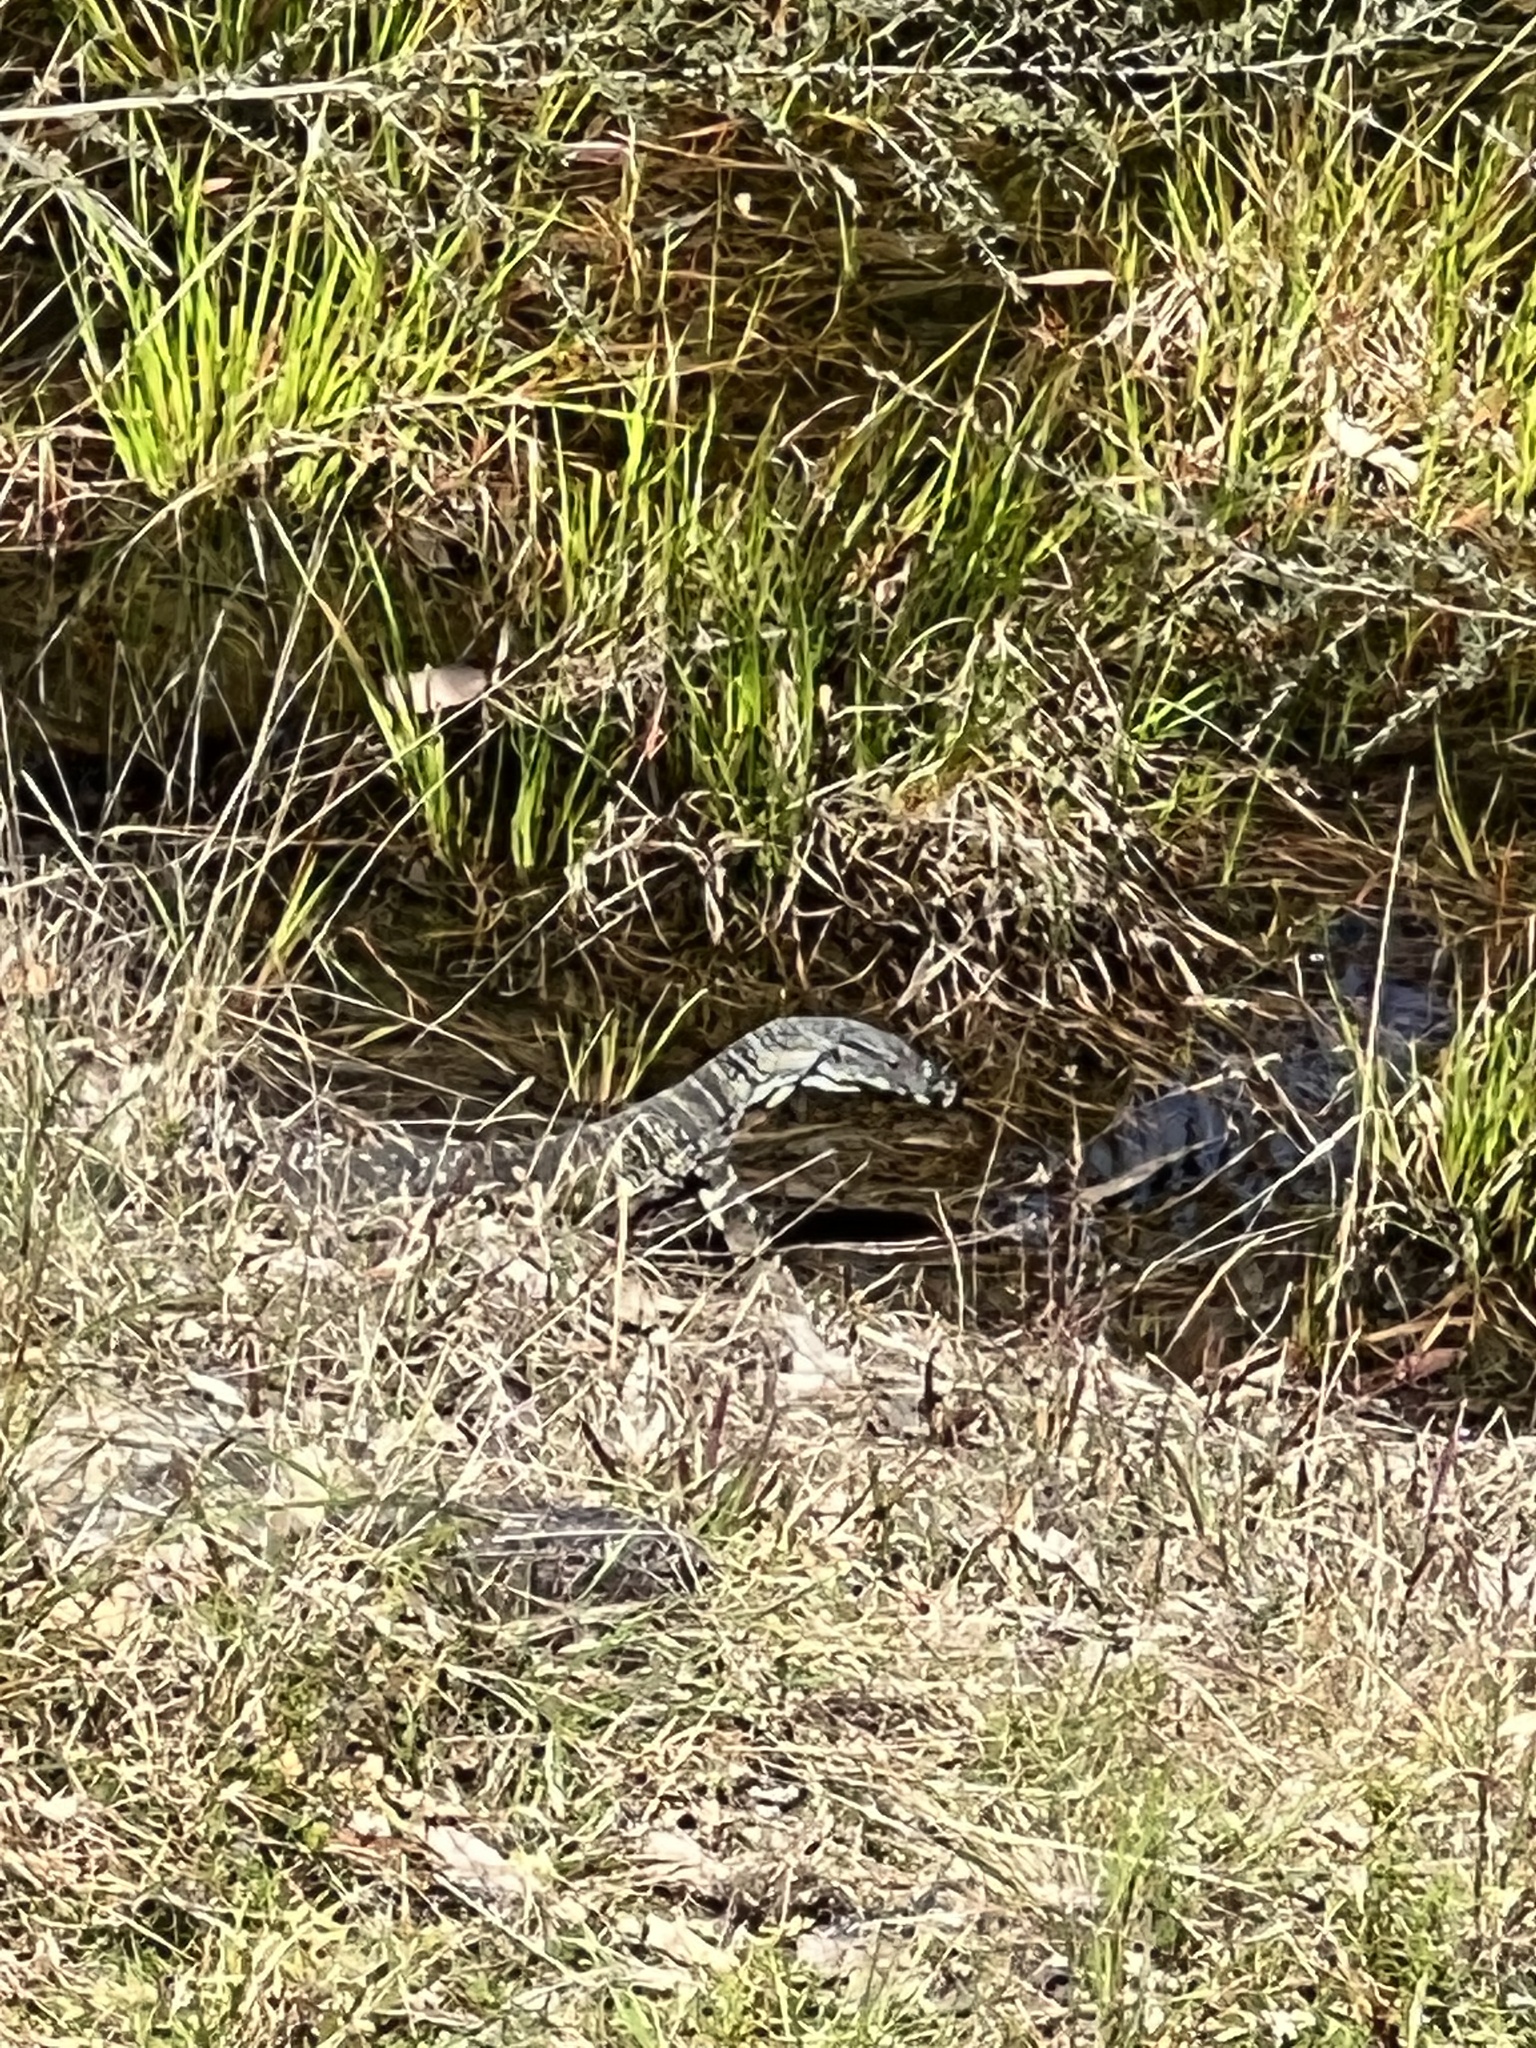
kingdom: Animalia
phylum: Chordata
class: Squamata
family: Varanidae
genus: Varanus
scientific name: Varanus varius
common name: Lace monitor
